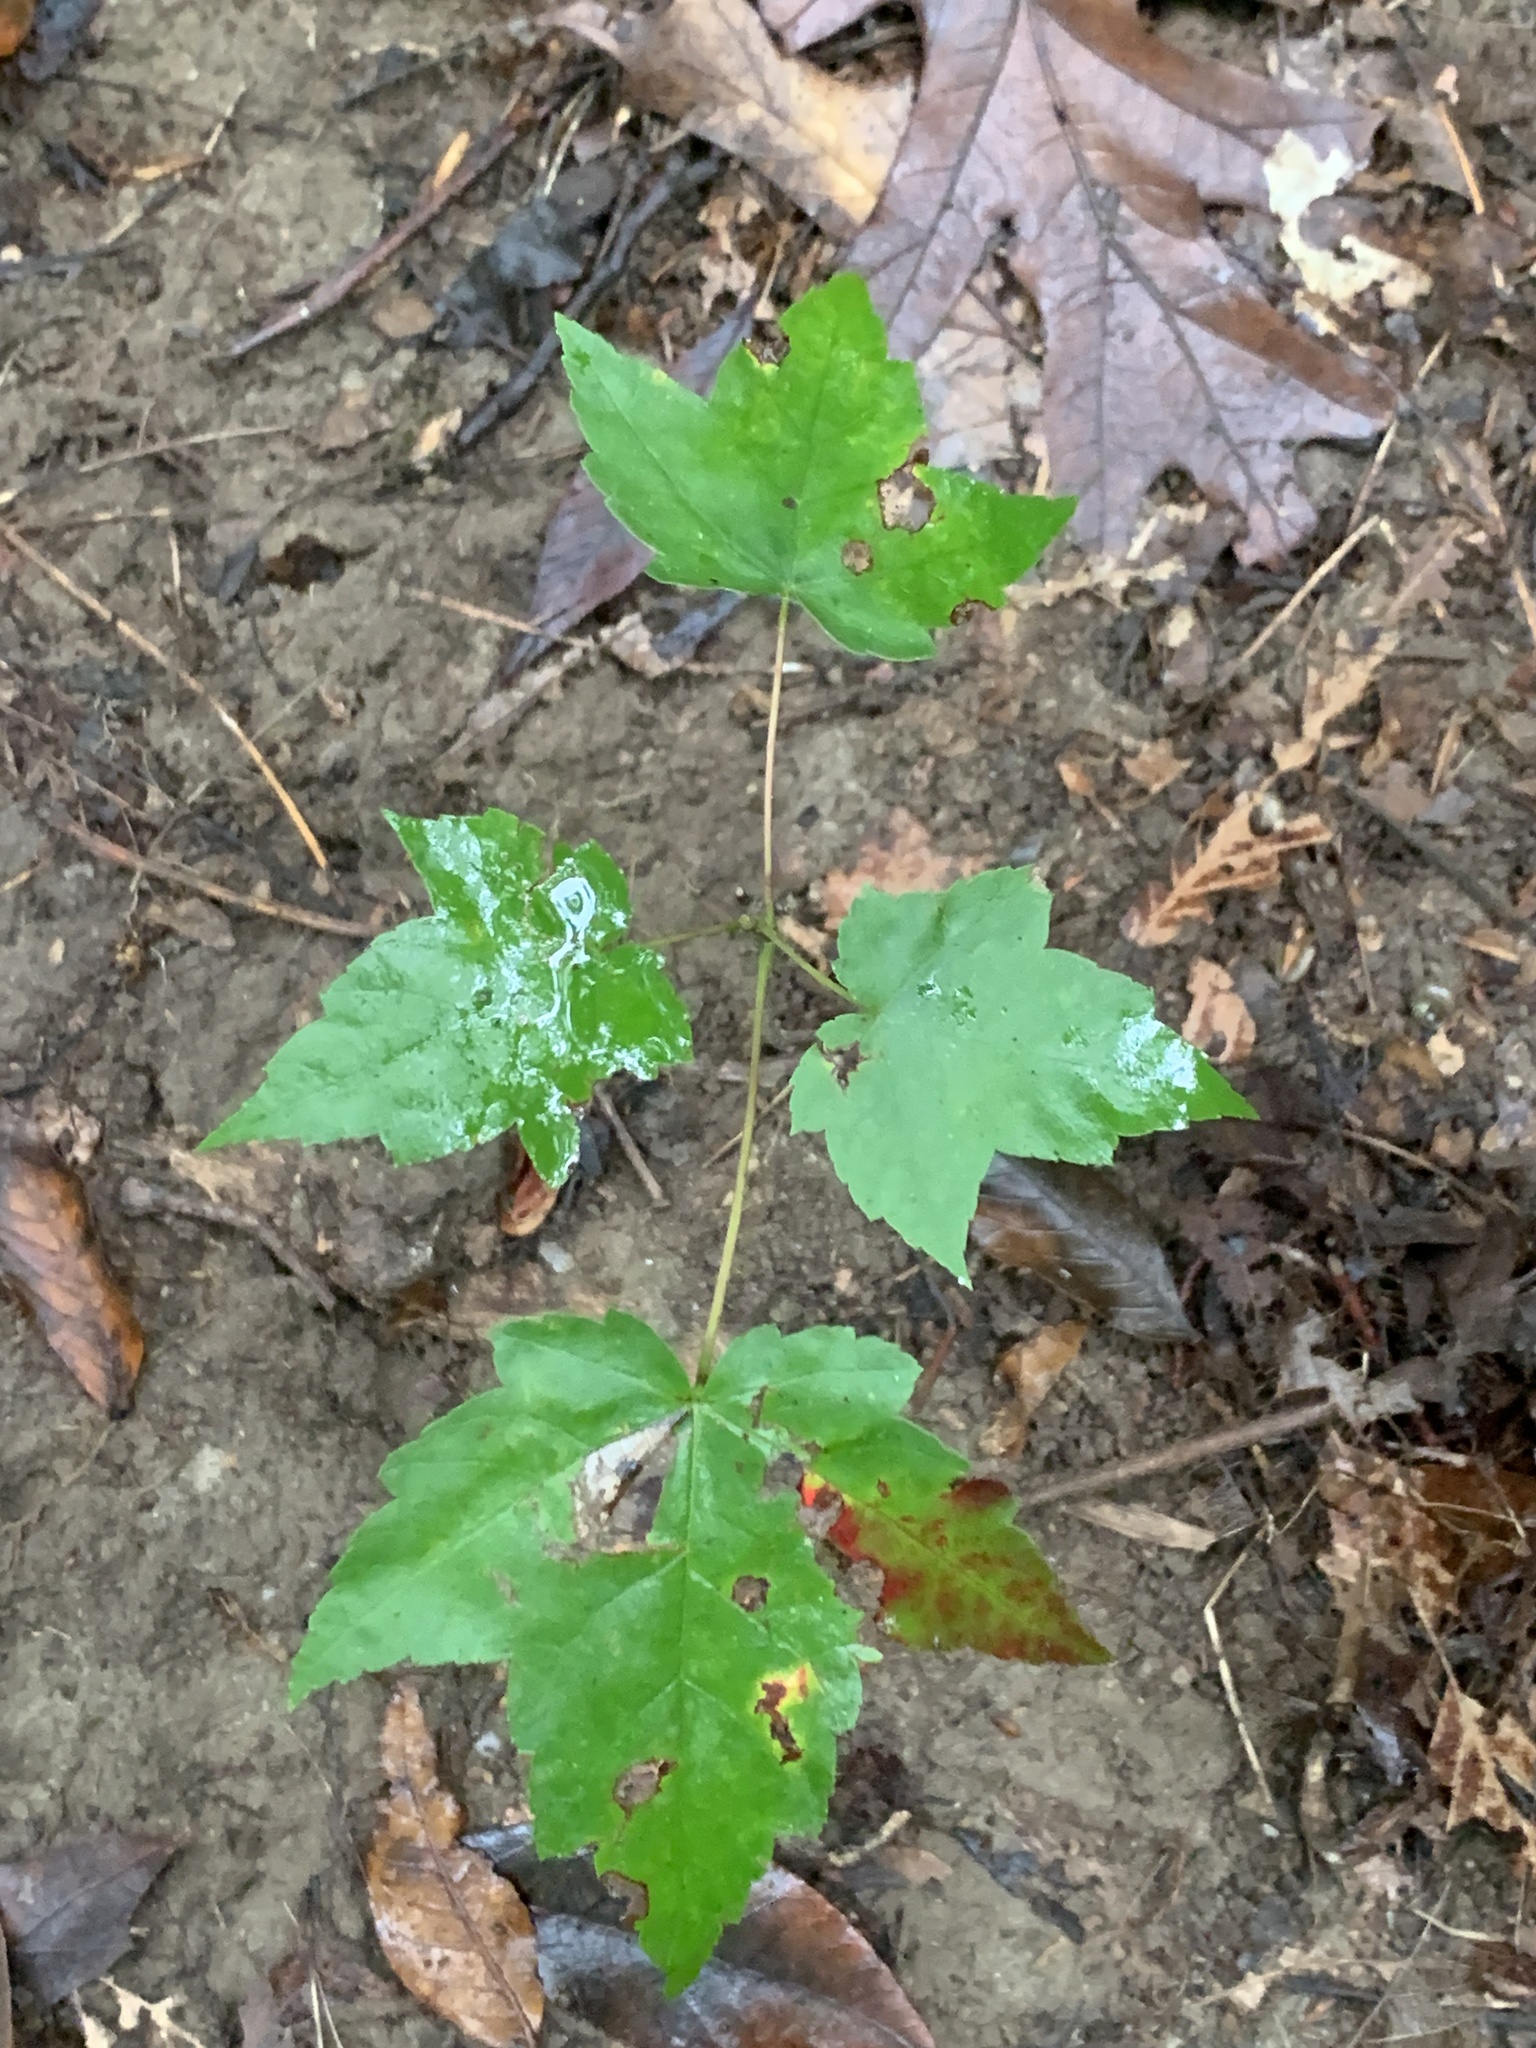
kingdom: Plantae
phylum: Tracheophyta
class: Magnoliopsida
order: Sapindales
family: Sapindaceae
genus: Acer
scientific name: Acer rubrum
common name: Red maple
